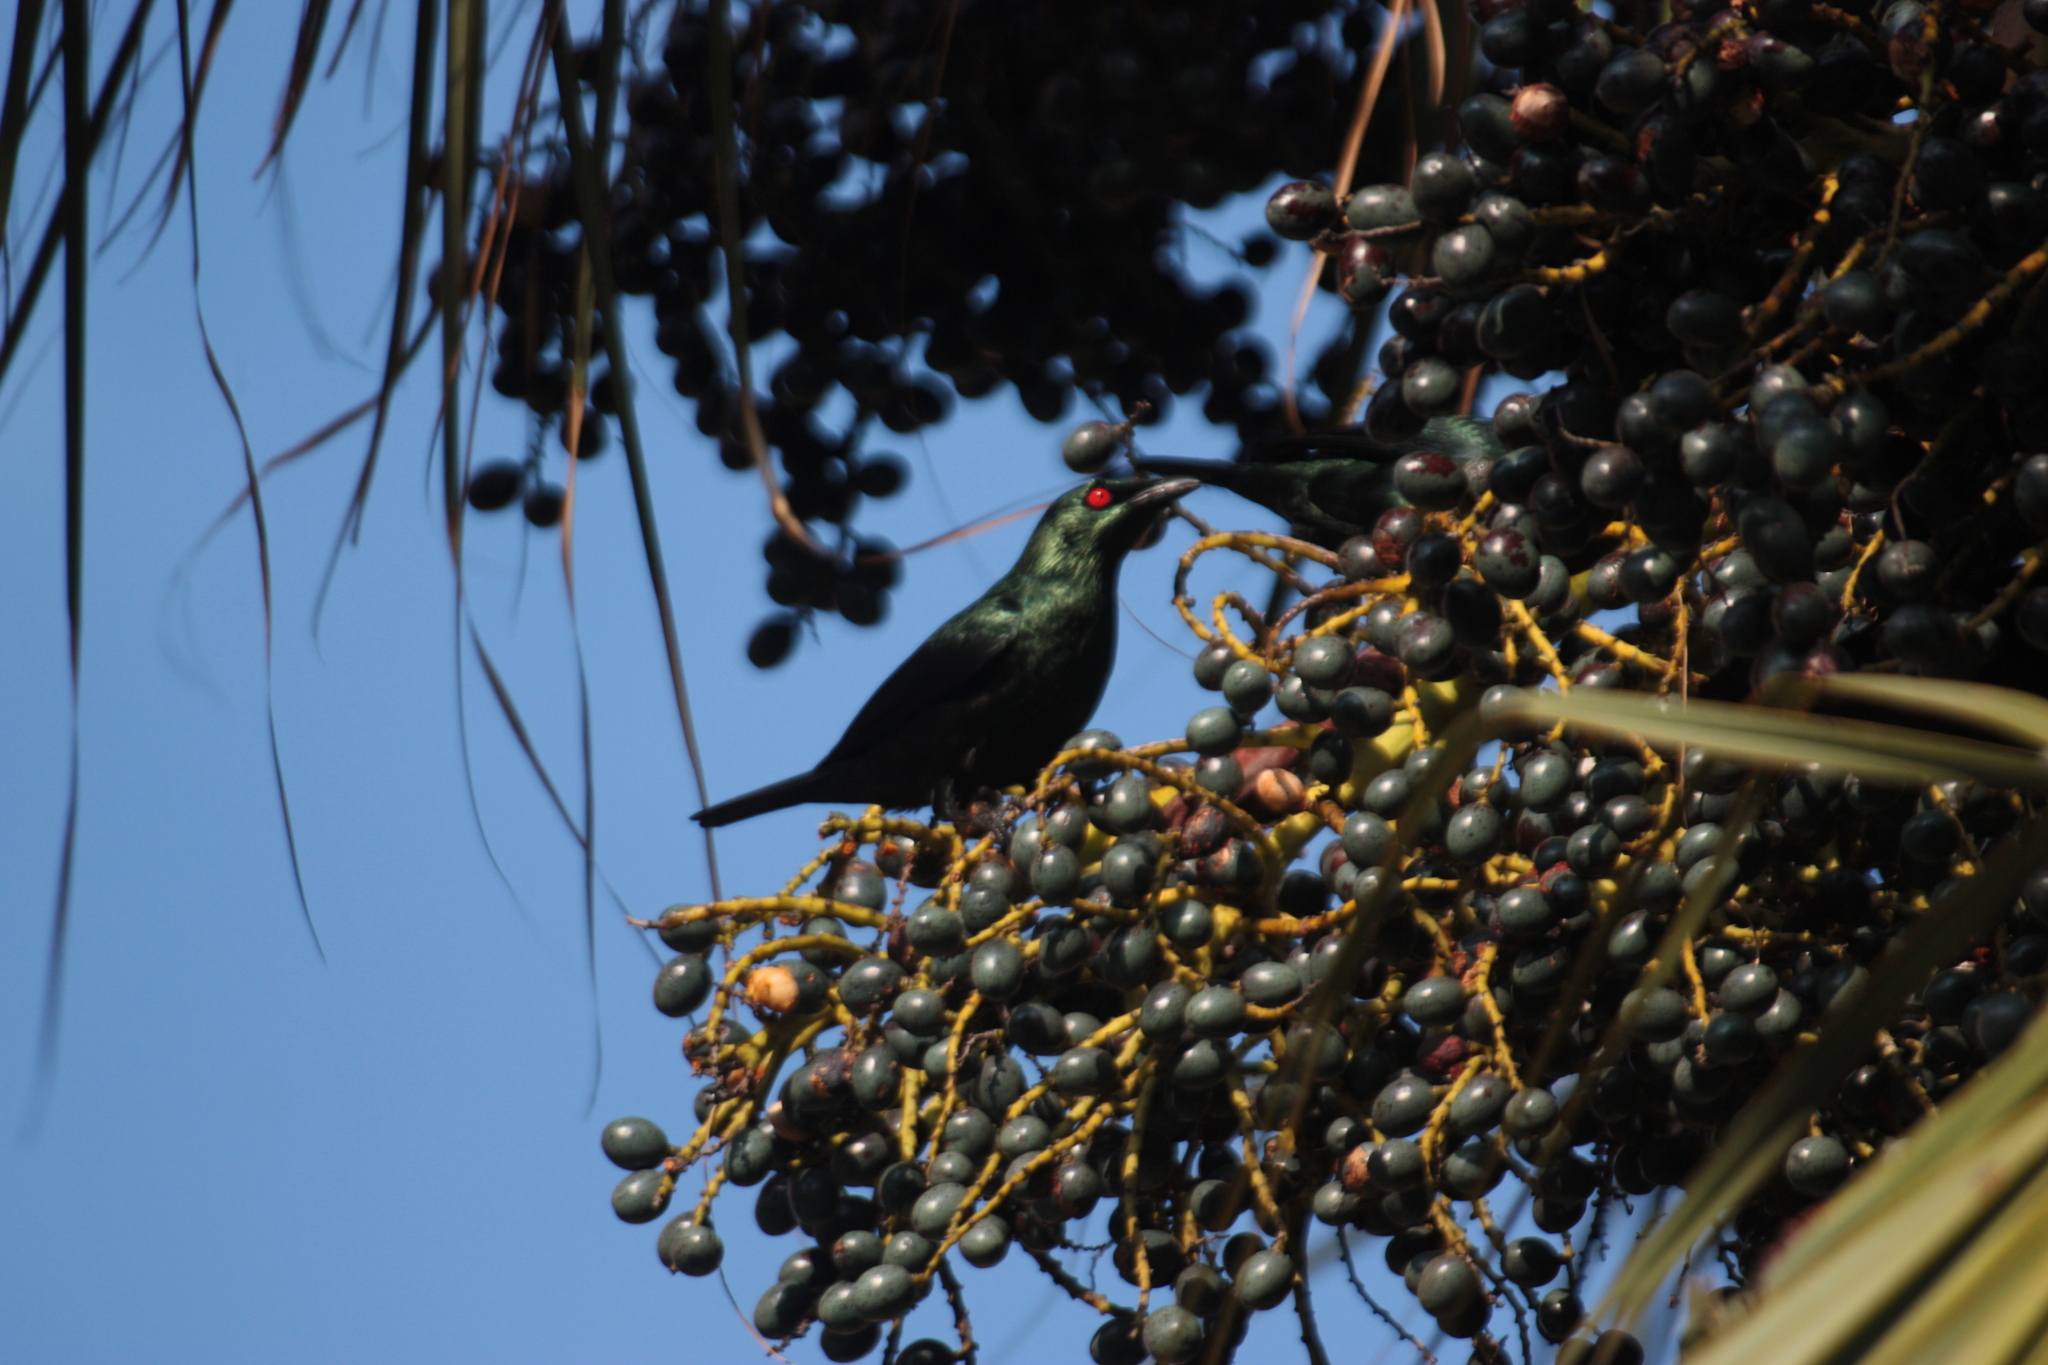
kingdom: Animalia
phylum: Chordata
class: Aves
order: Passeriformes
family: Sturnidae
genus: Aplonis
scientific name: Aplonis panayensis
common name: Asian glossy starling
